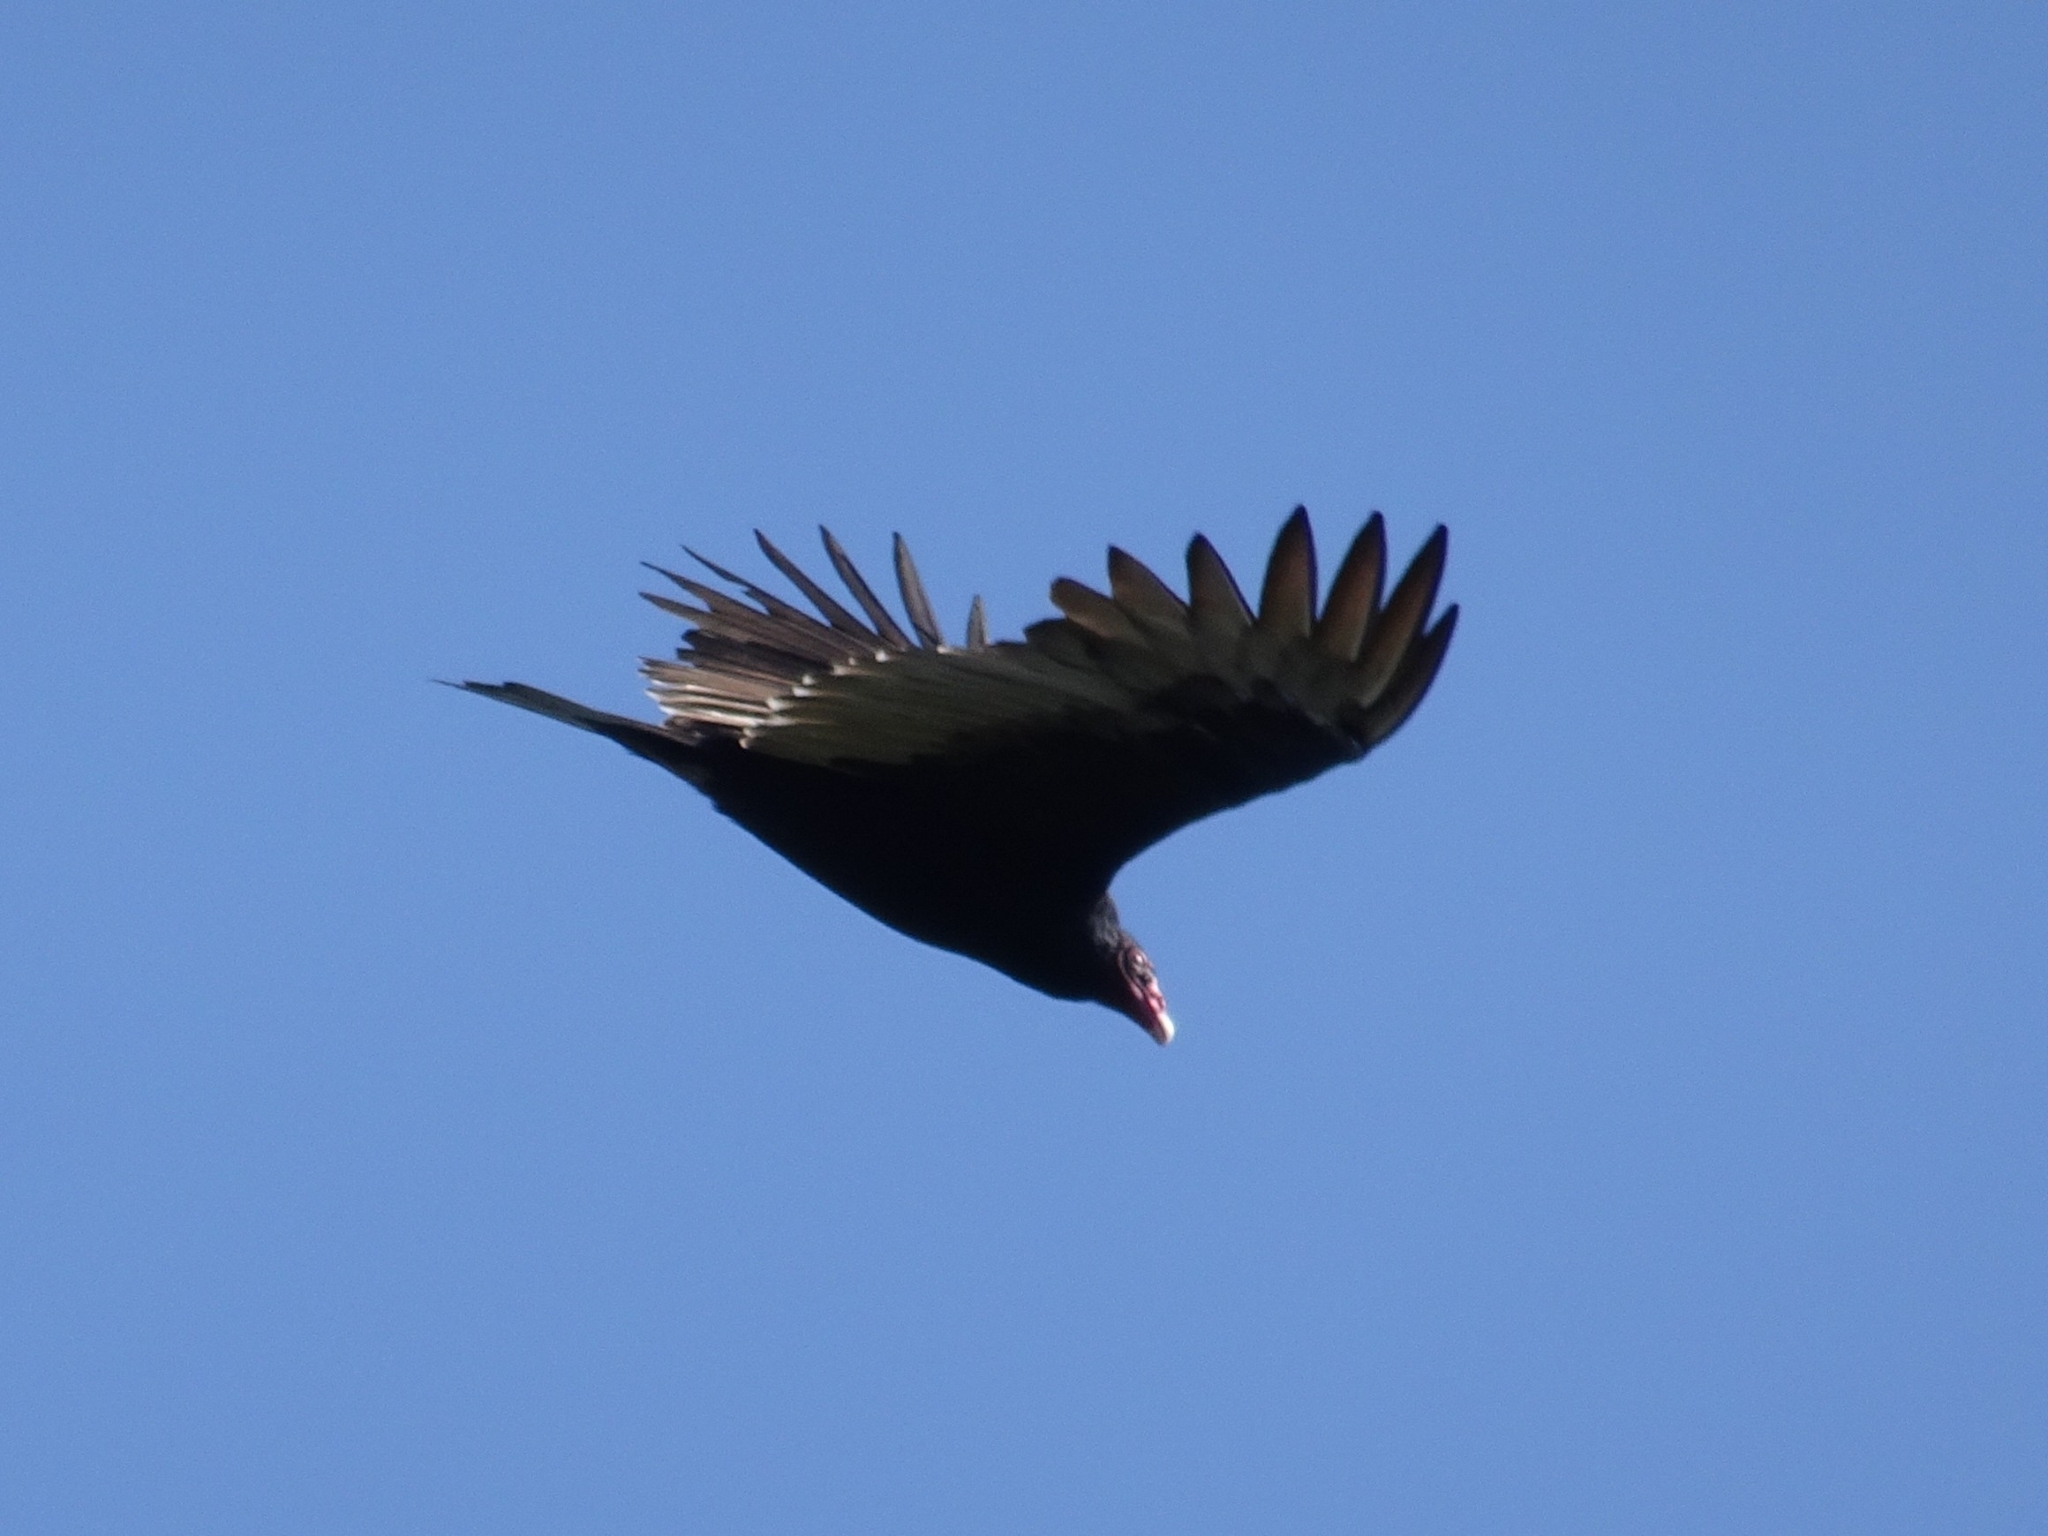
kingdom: Animalia
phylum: Chordata
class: Aves
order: Accipitriformes
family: Cathartidae
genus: Cathartes
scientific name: Cathartes aura
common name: Turkey vulture
